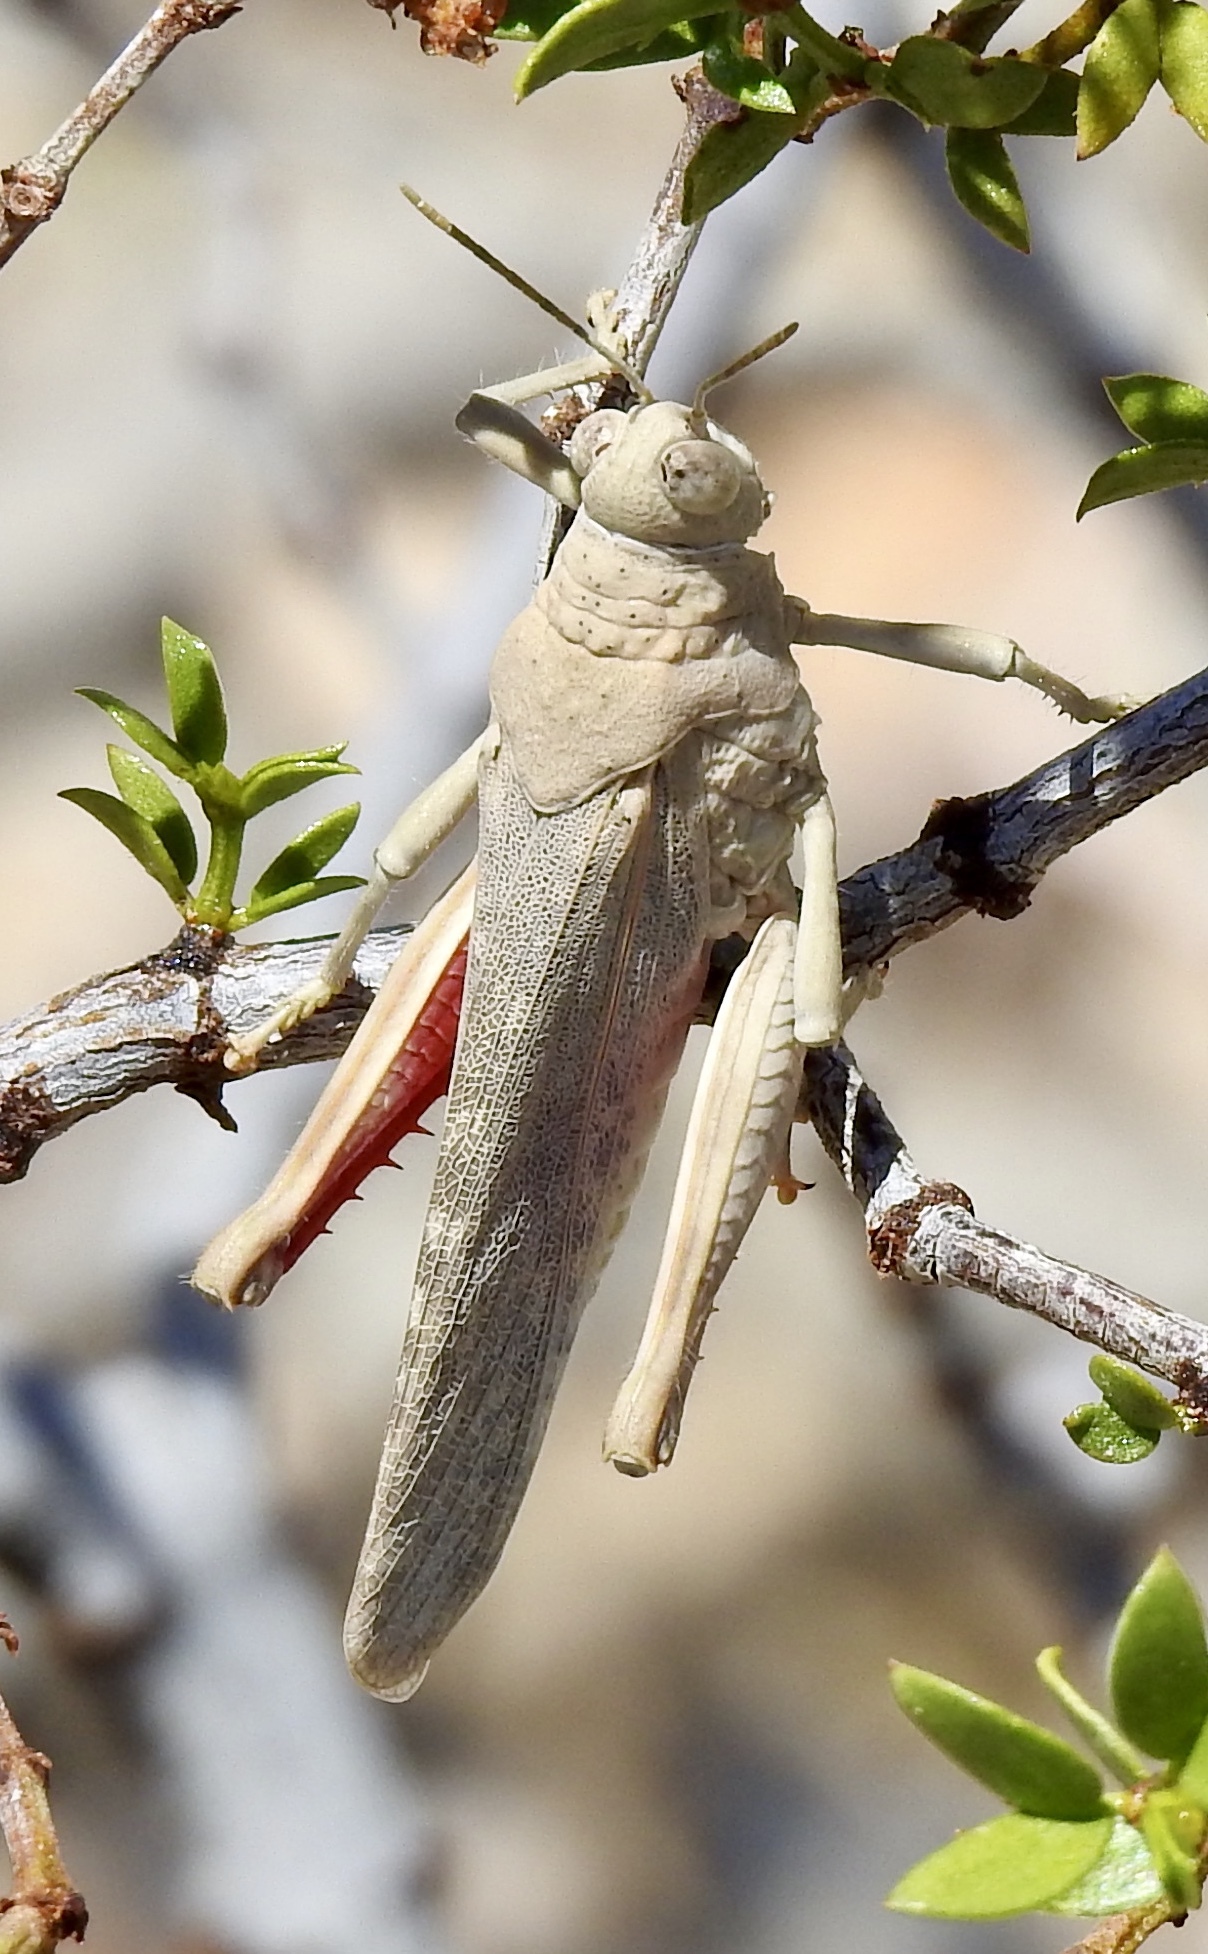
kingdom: Animalia
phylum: Arthropoda
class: Insecta
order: Orthoptera
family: Romaleidae
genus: Tytthotyle
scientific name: Tytthotyle maculata
